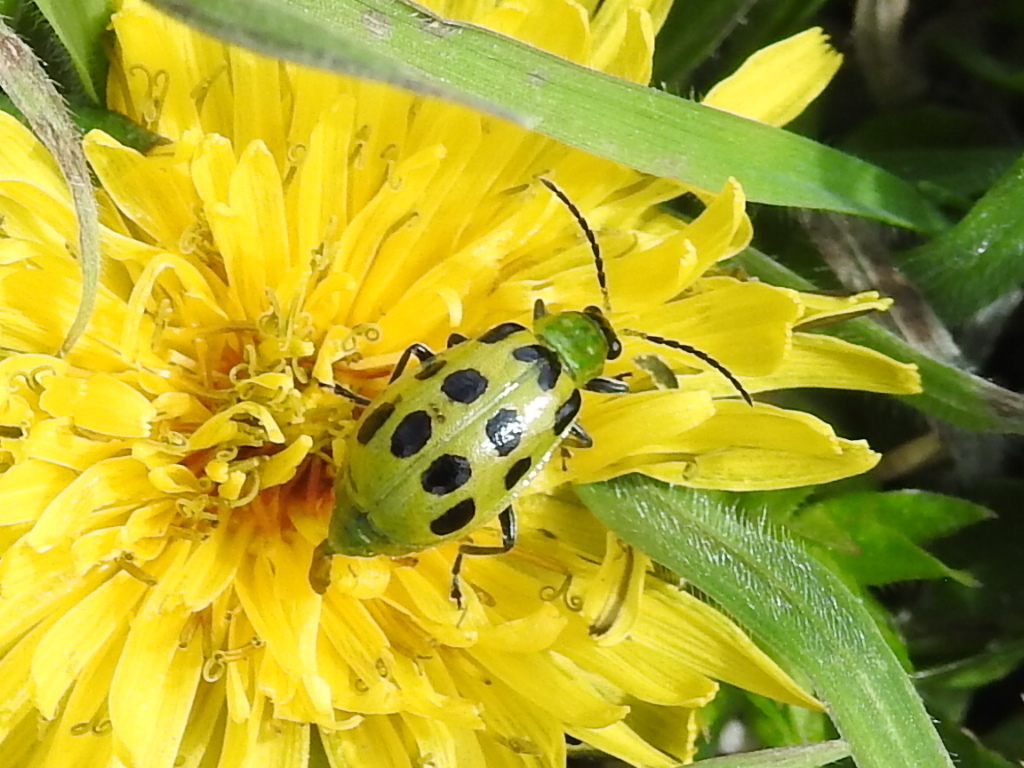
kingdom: Animalia
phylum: Arthropoda
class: Insecta
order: Coleoptera
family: Chrysomelidae
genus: Diabrotica
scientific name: Diabrotica undecimpunctata
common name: Spotted cucumber beetle
